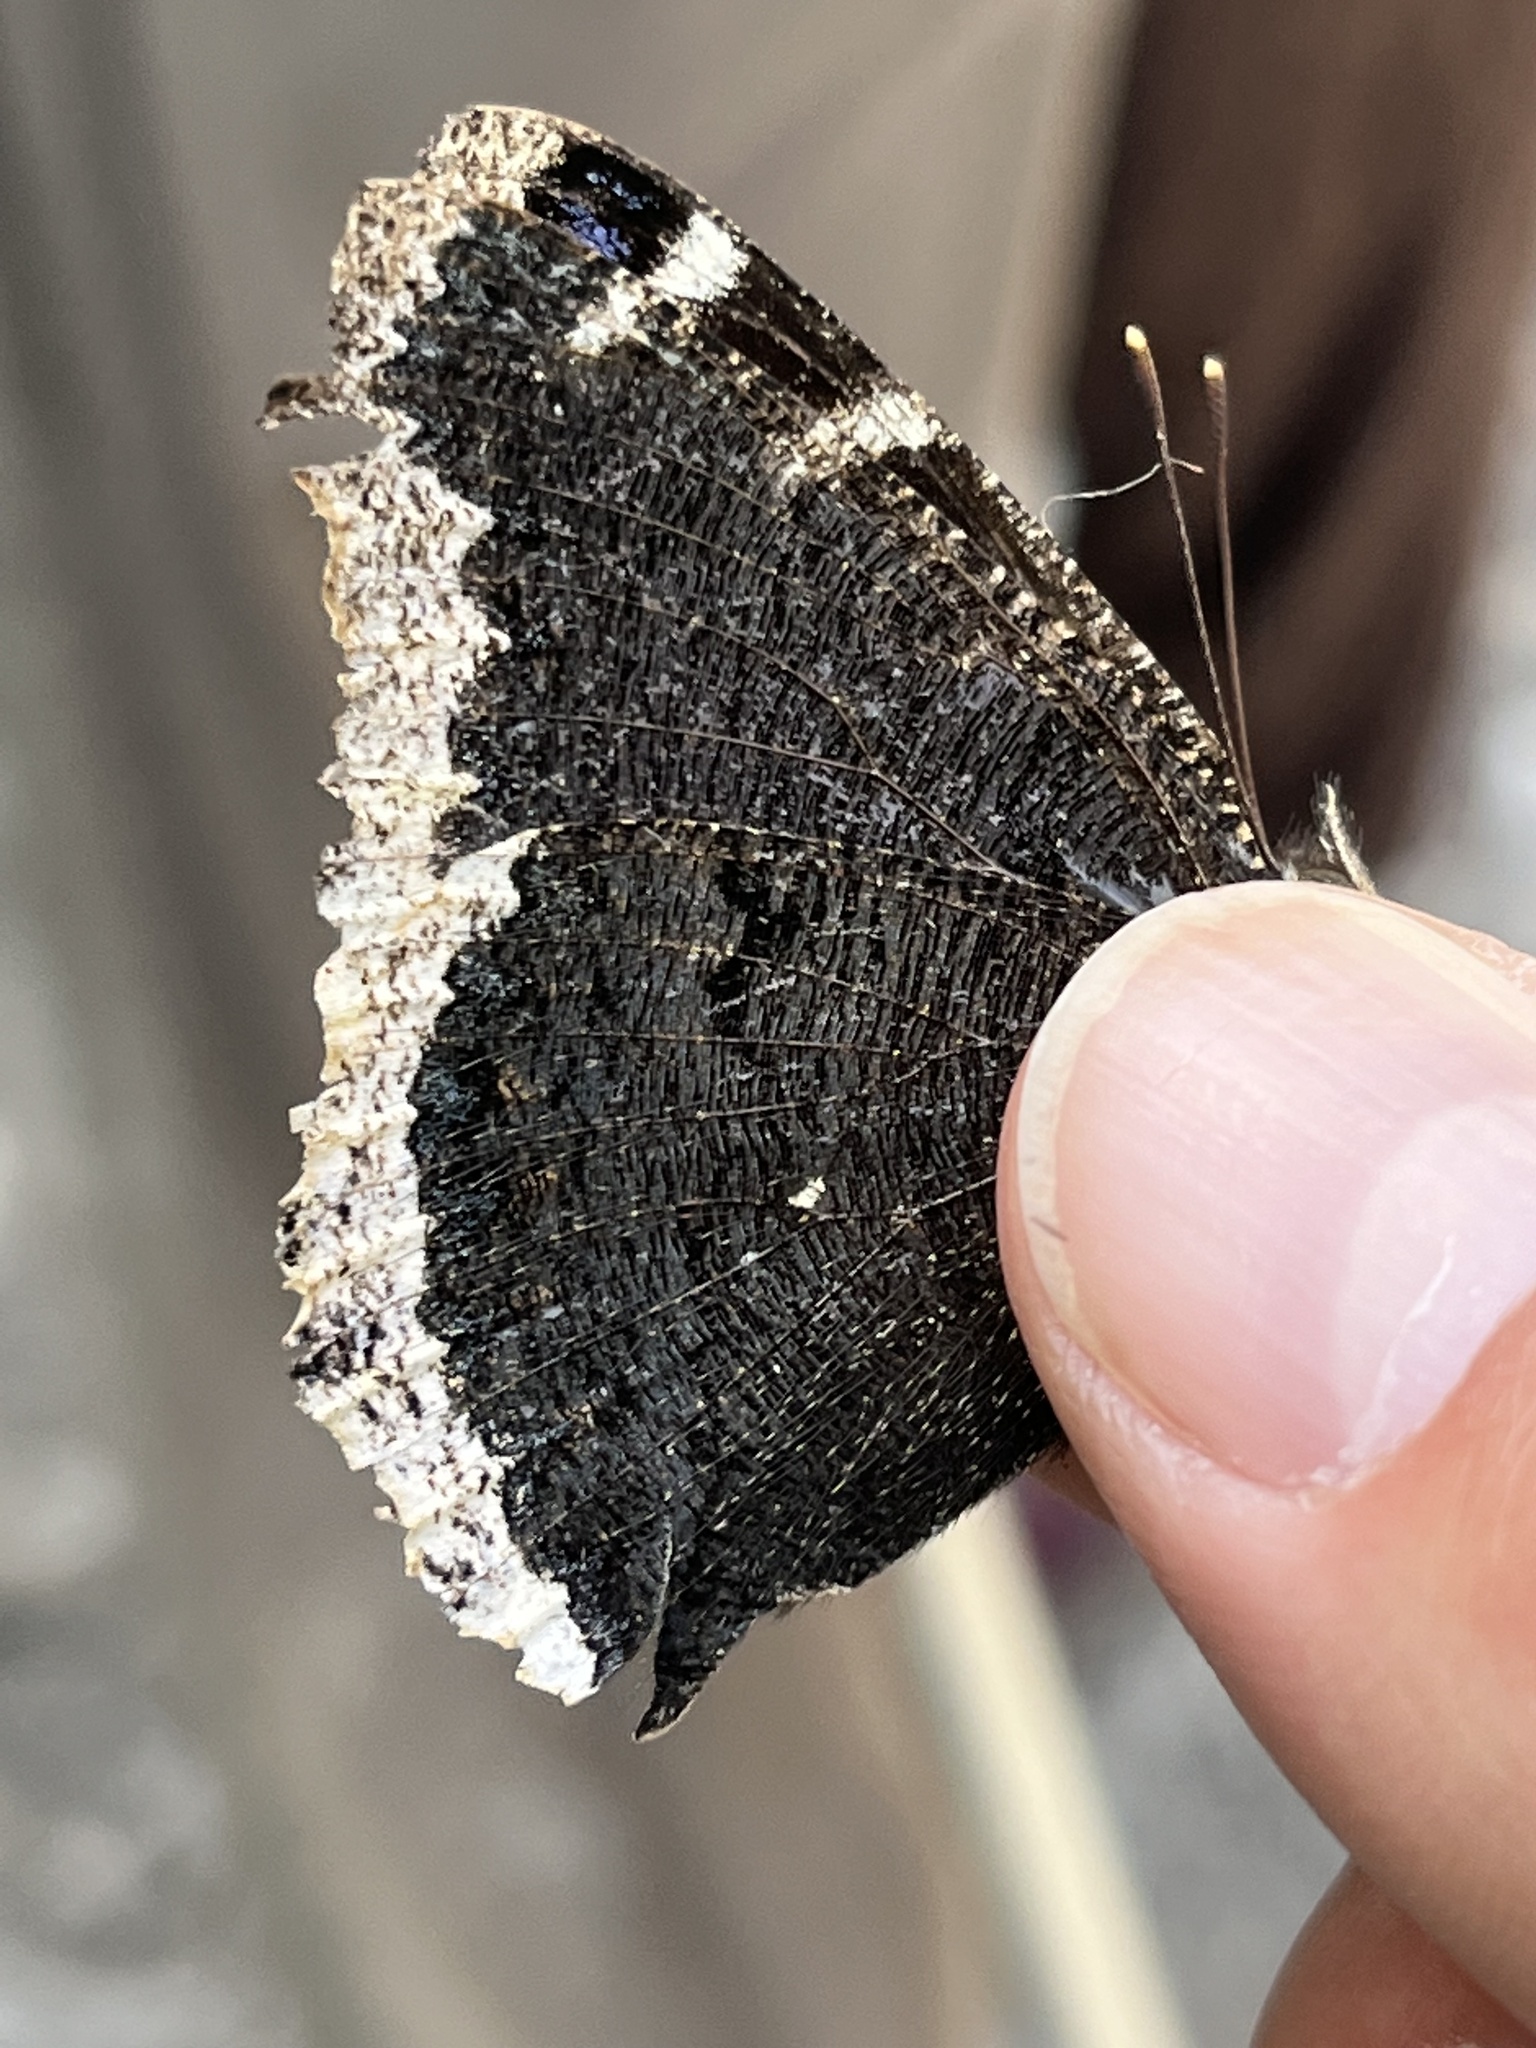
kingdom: Animalia
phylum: Arthropoda
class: Insecta
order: Lepidoptera
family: Nymphalidae
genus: Nymphalis
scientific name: Nymphalis antiopa
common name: Camberwell beauty
